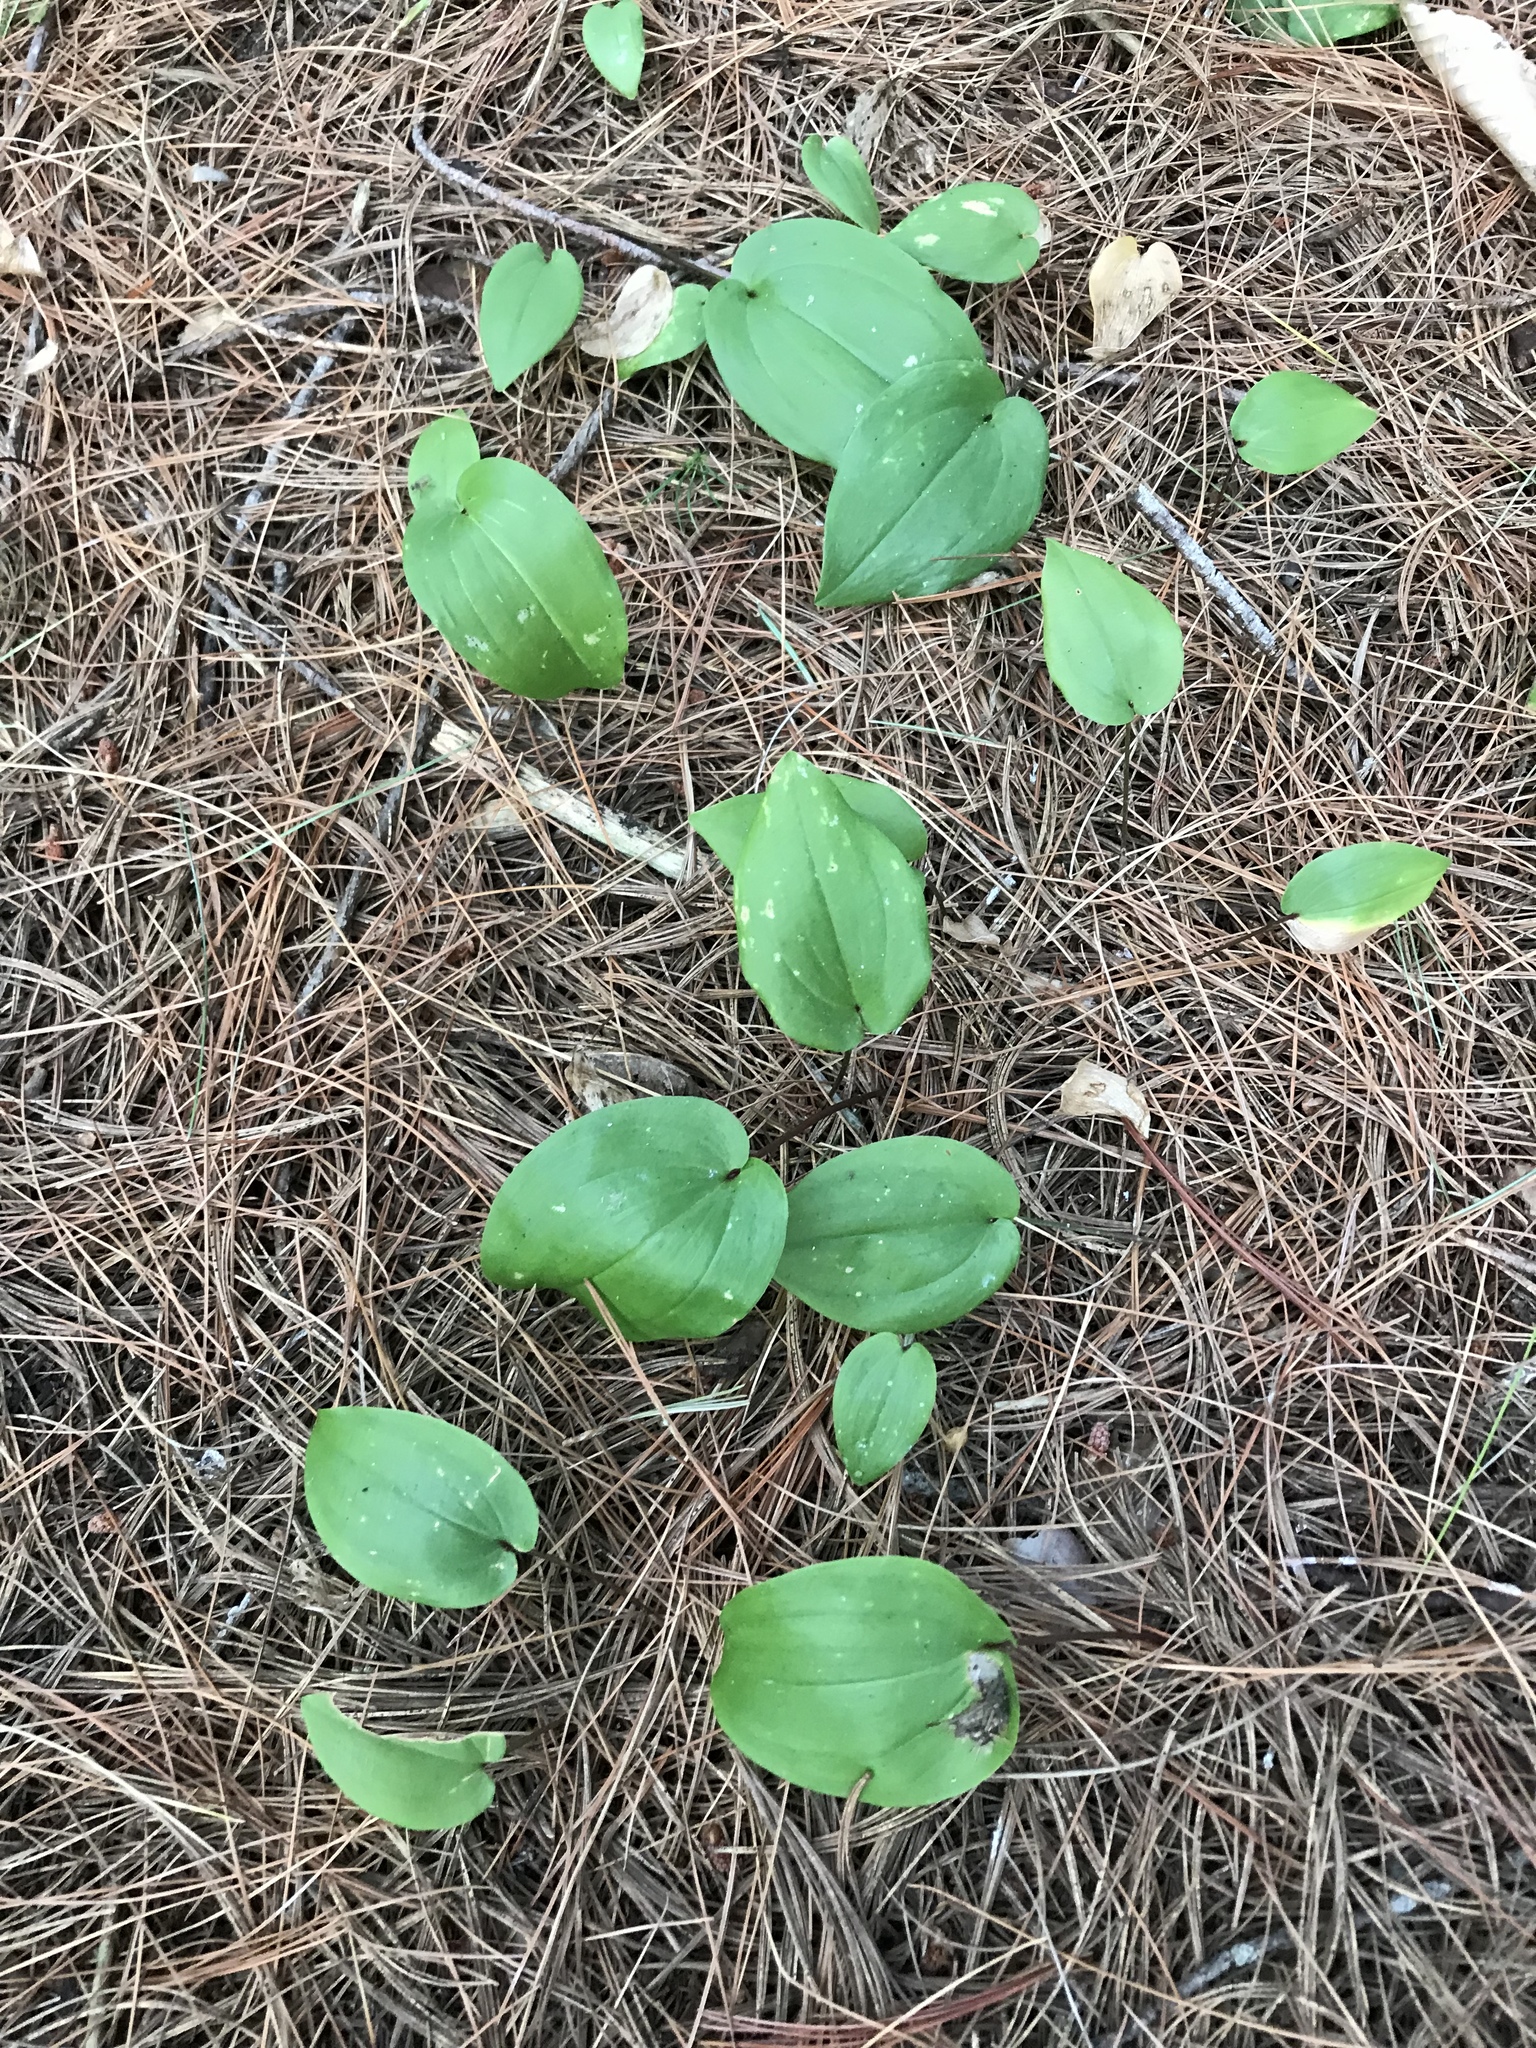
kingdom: Plantae
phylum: Tracheophyta
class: Liliopsida
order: Asparagales
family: Asparagaceae
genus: Maianthemum
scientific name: Maianthemum canadense
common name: False lily-of-the-valley
